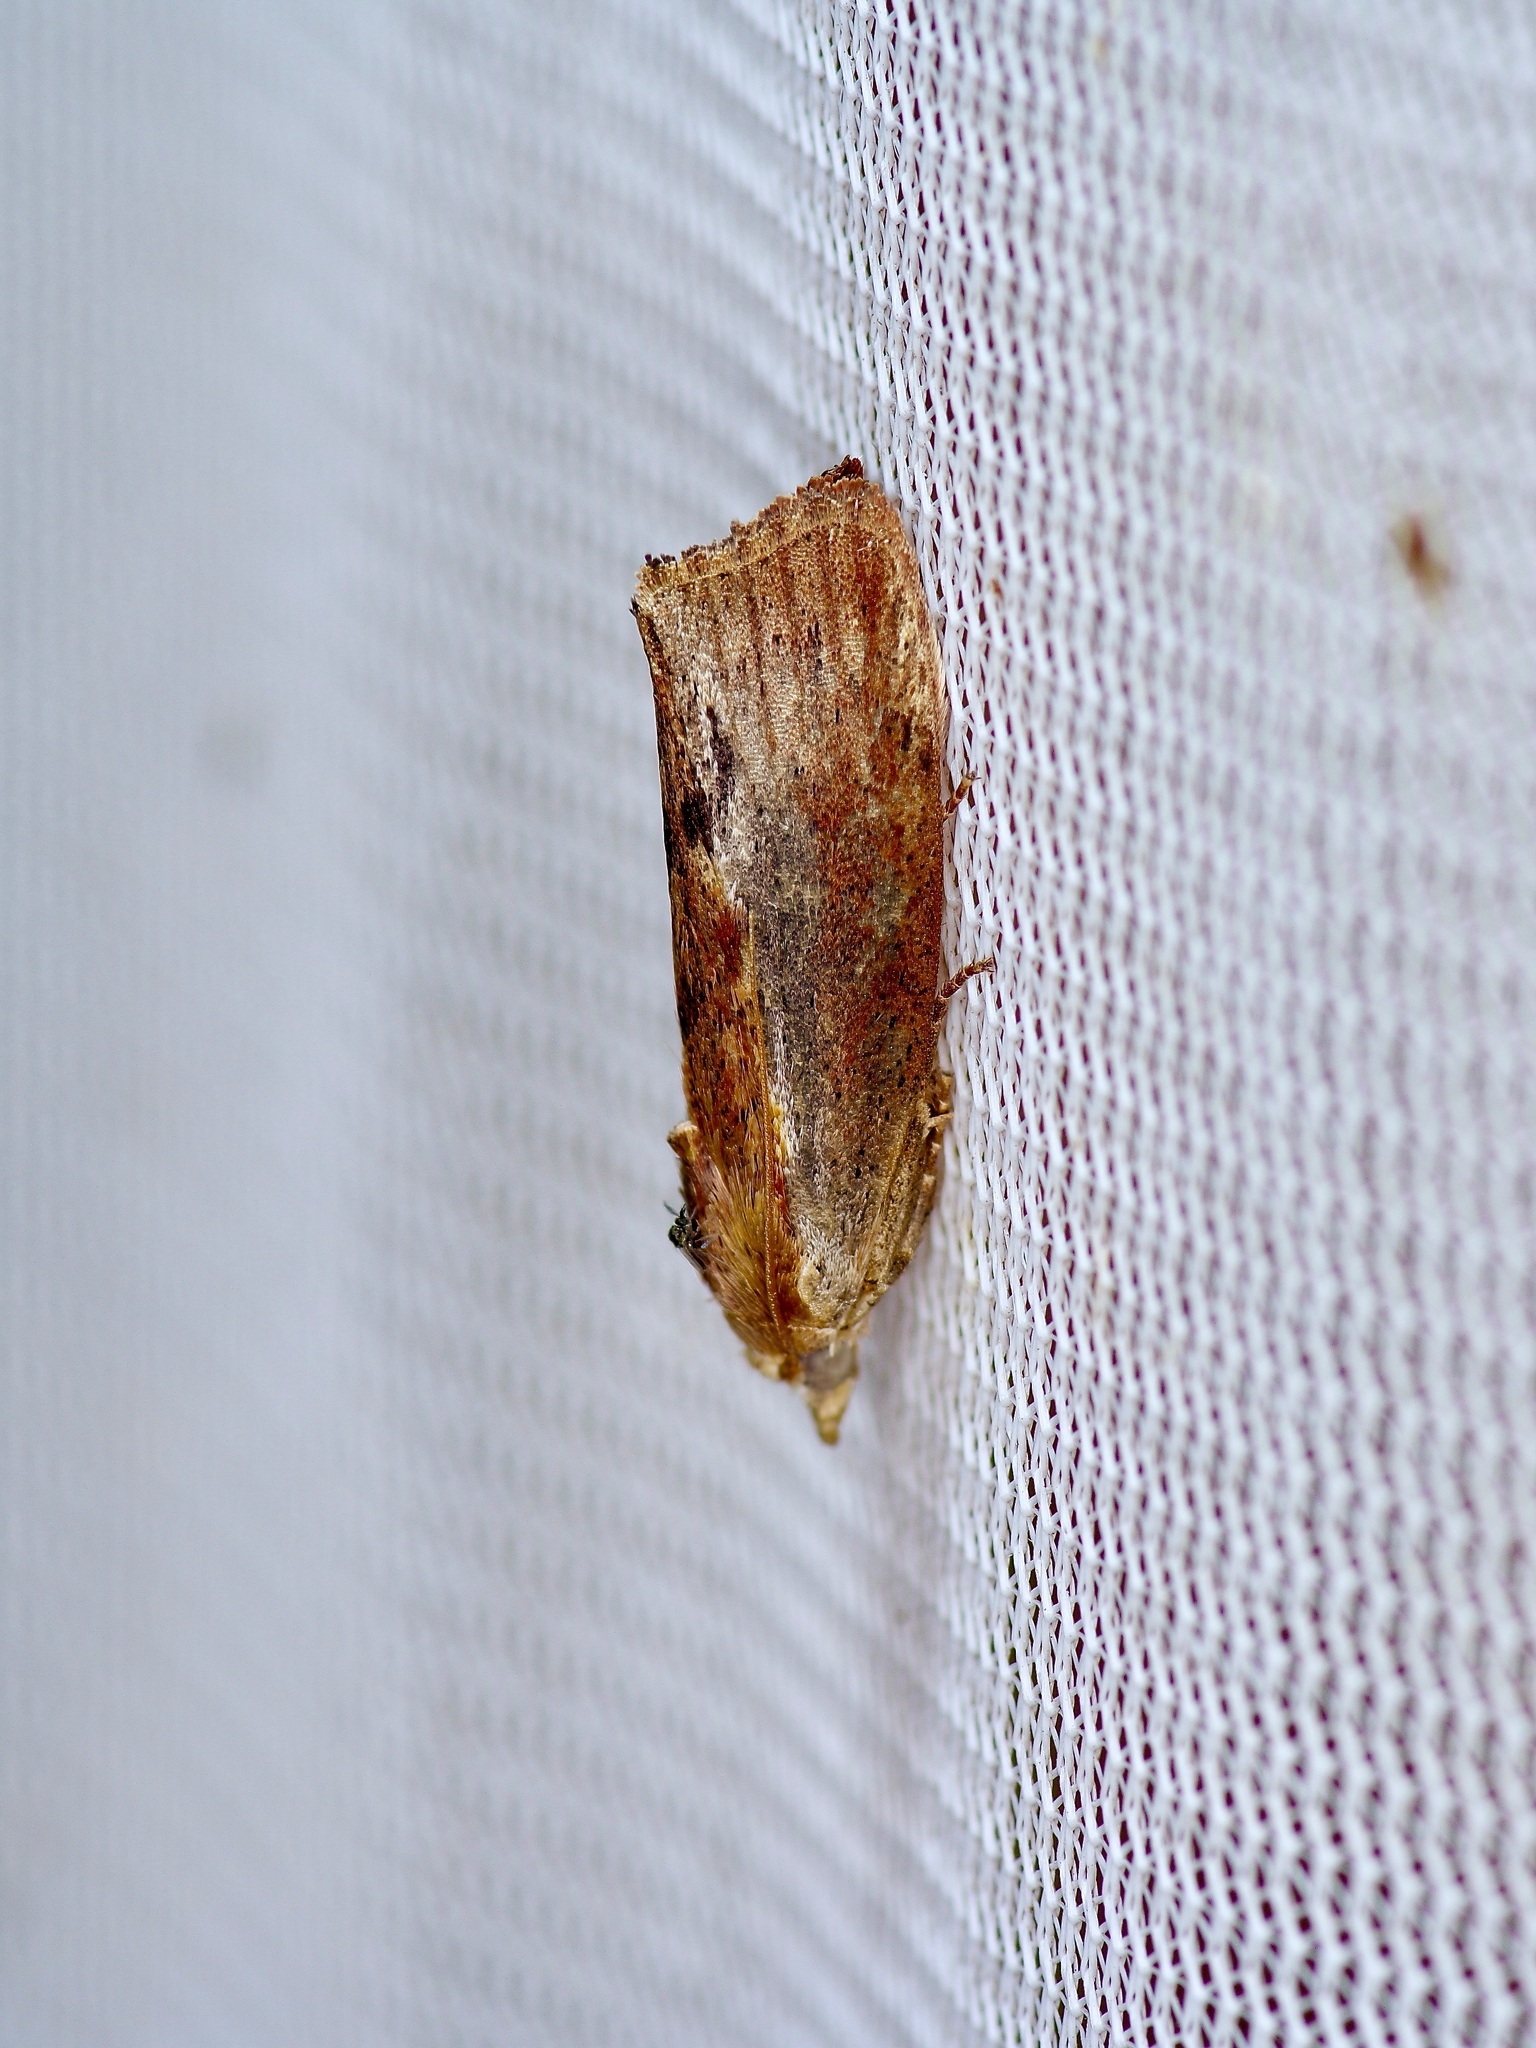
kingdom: Animalia
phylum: Arthropoda
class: Insecta
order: Lepidoptera
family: Pyralidae
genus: Galleria
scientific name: Galleria mellonella
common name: Greater wax moth
